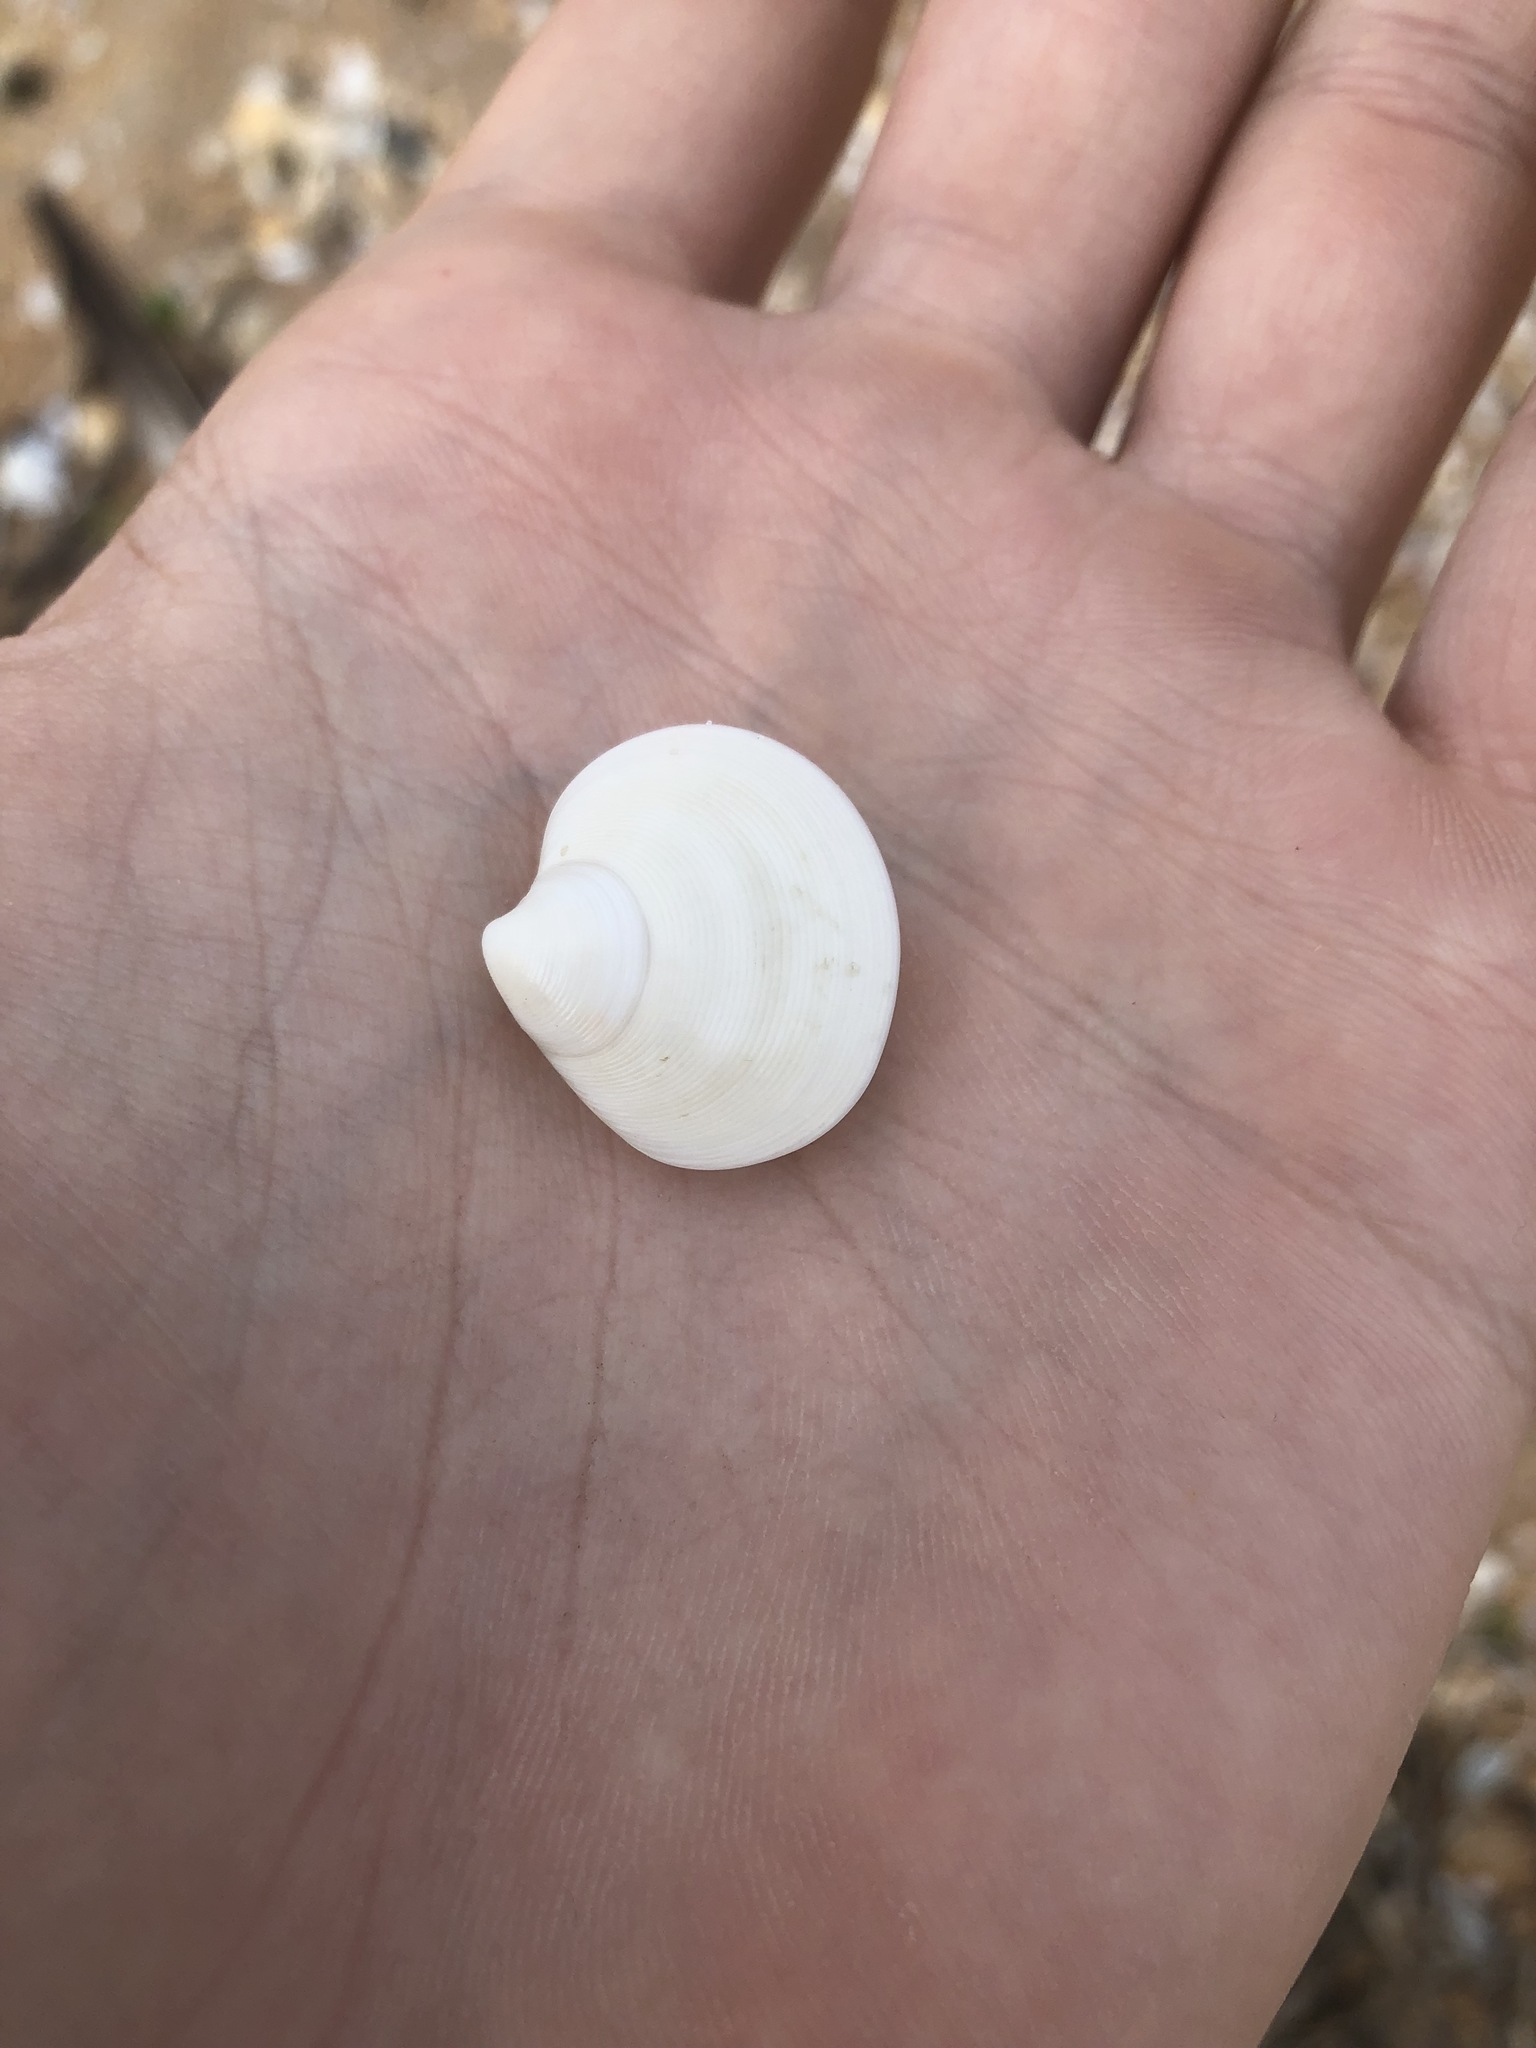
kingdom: Animalia
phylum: Mollusca
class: Bivalvia
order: Venerida
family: Veneridae
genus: Dosinia
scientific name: Dosinia discus
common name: Disk dosinia
